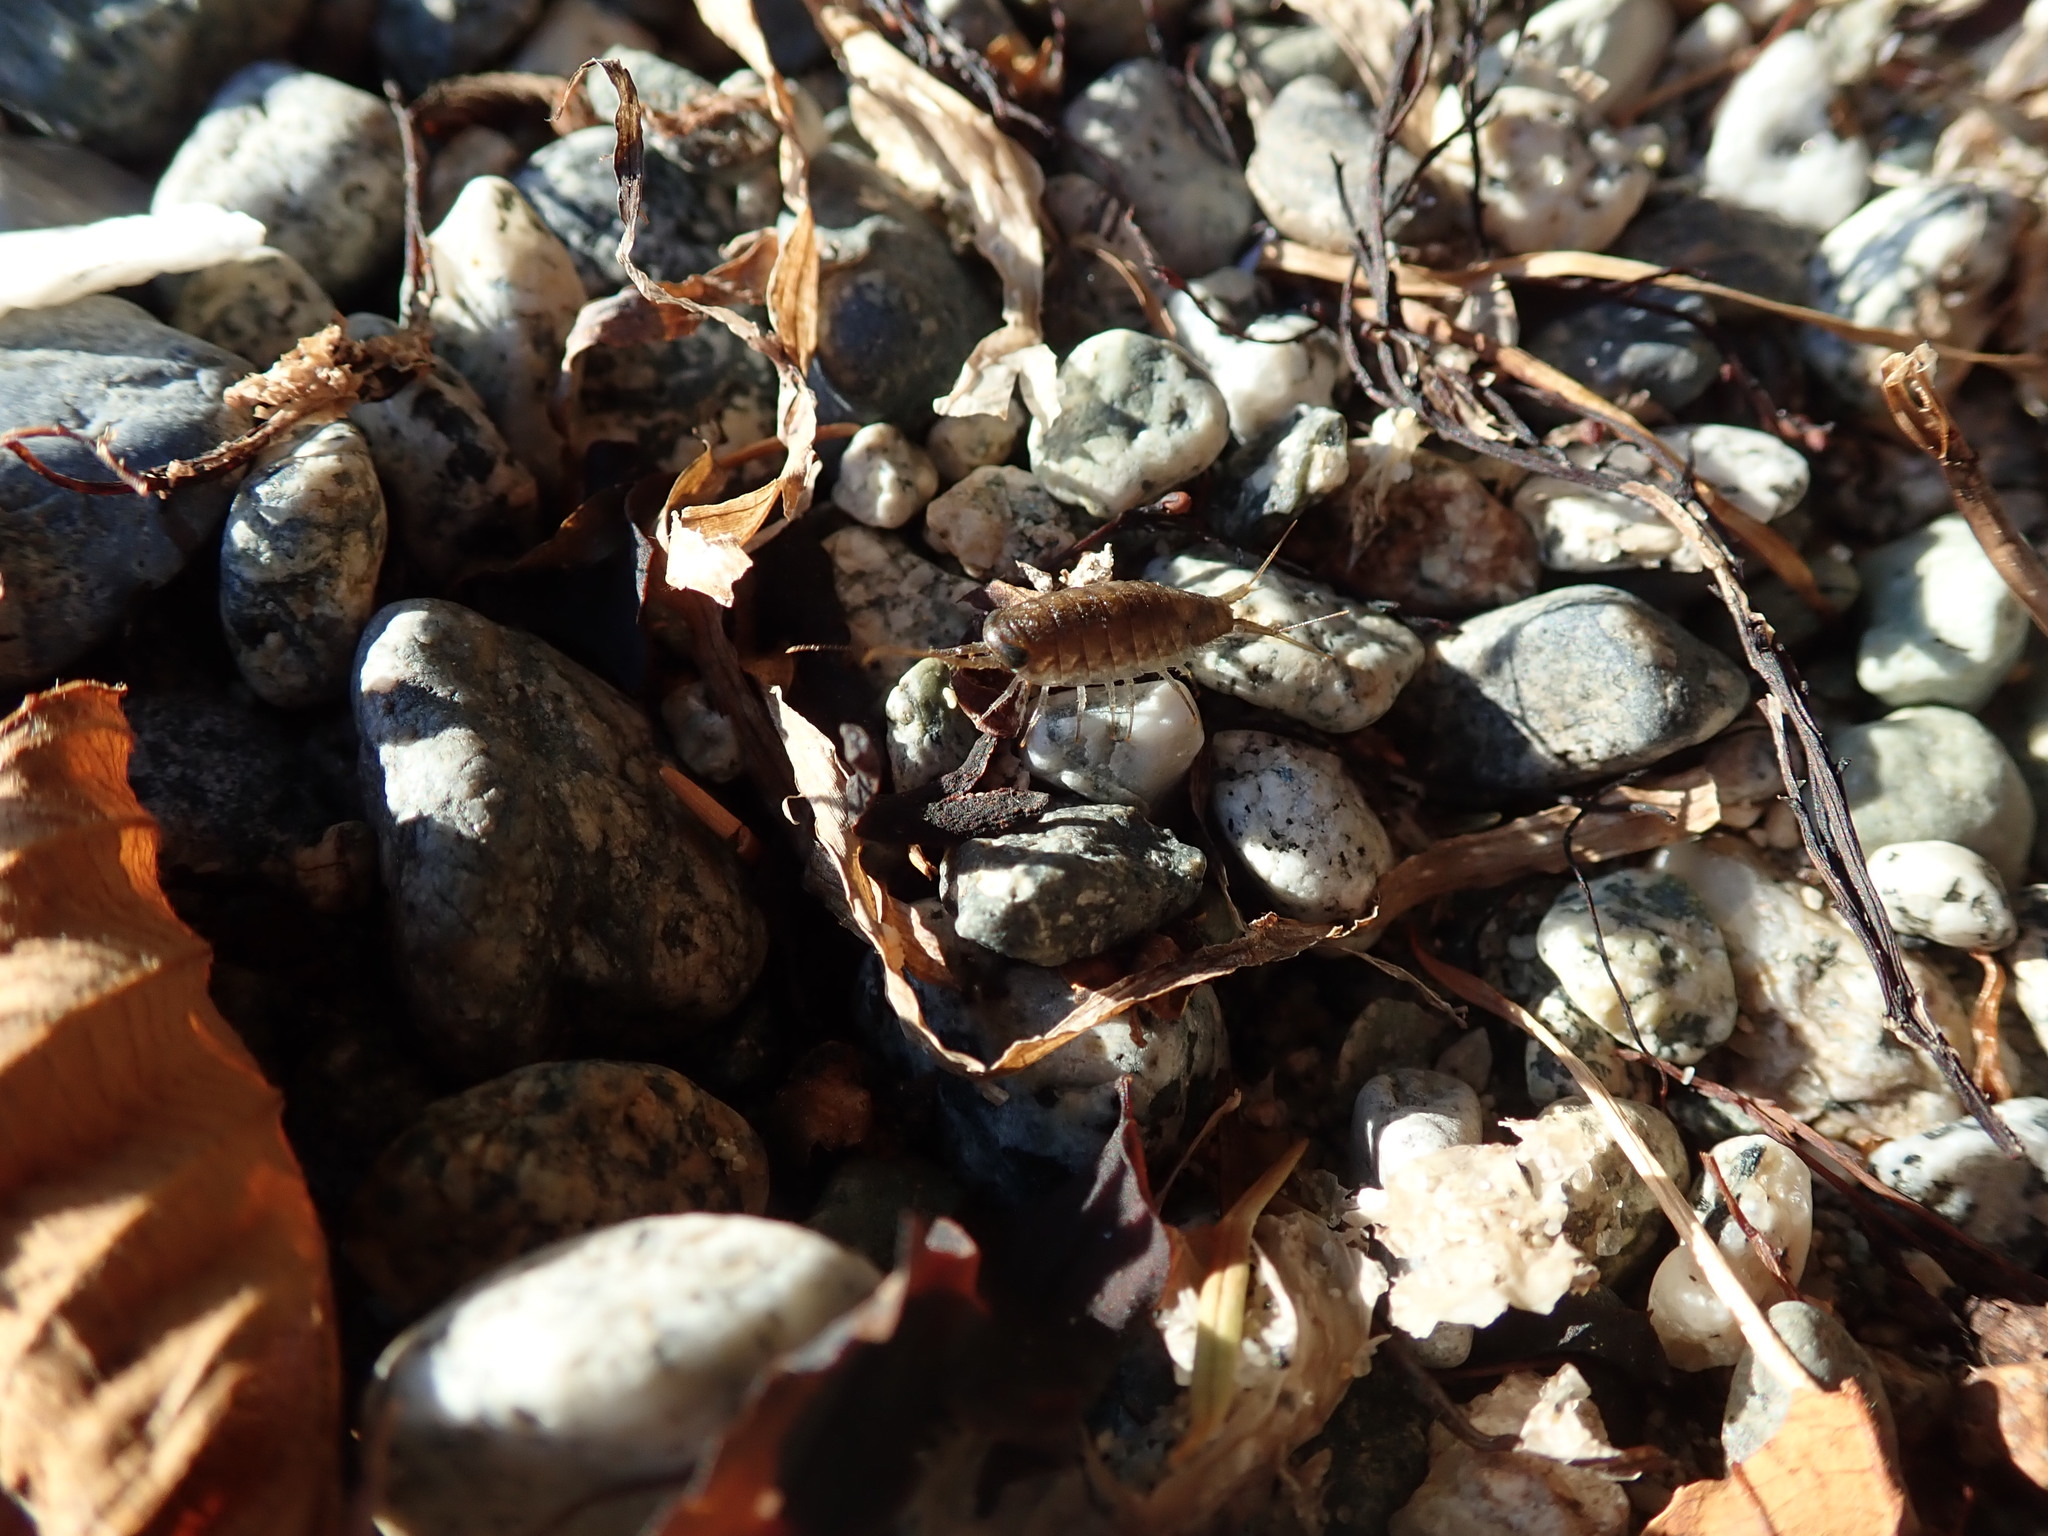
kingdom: Animalia
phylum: Arthropoda
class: Malacostraca
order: Isopoda
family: Ligiidae
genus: Ligia
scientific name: Ligia occidentalis
